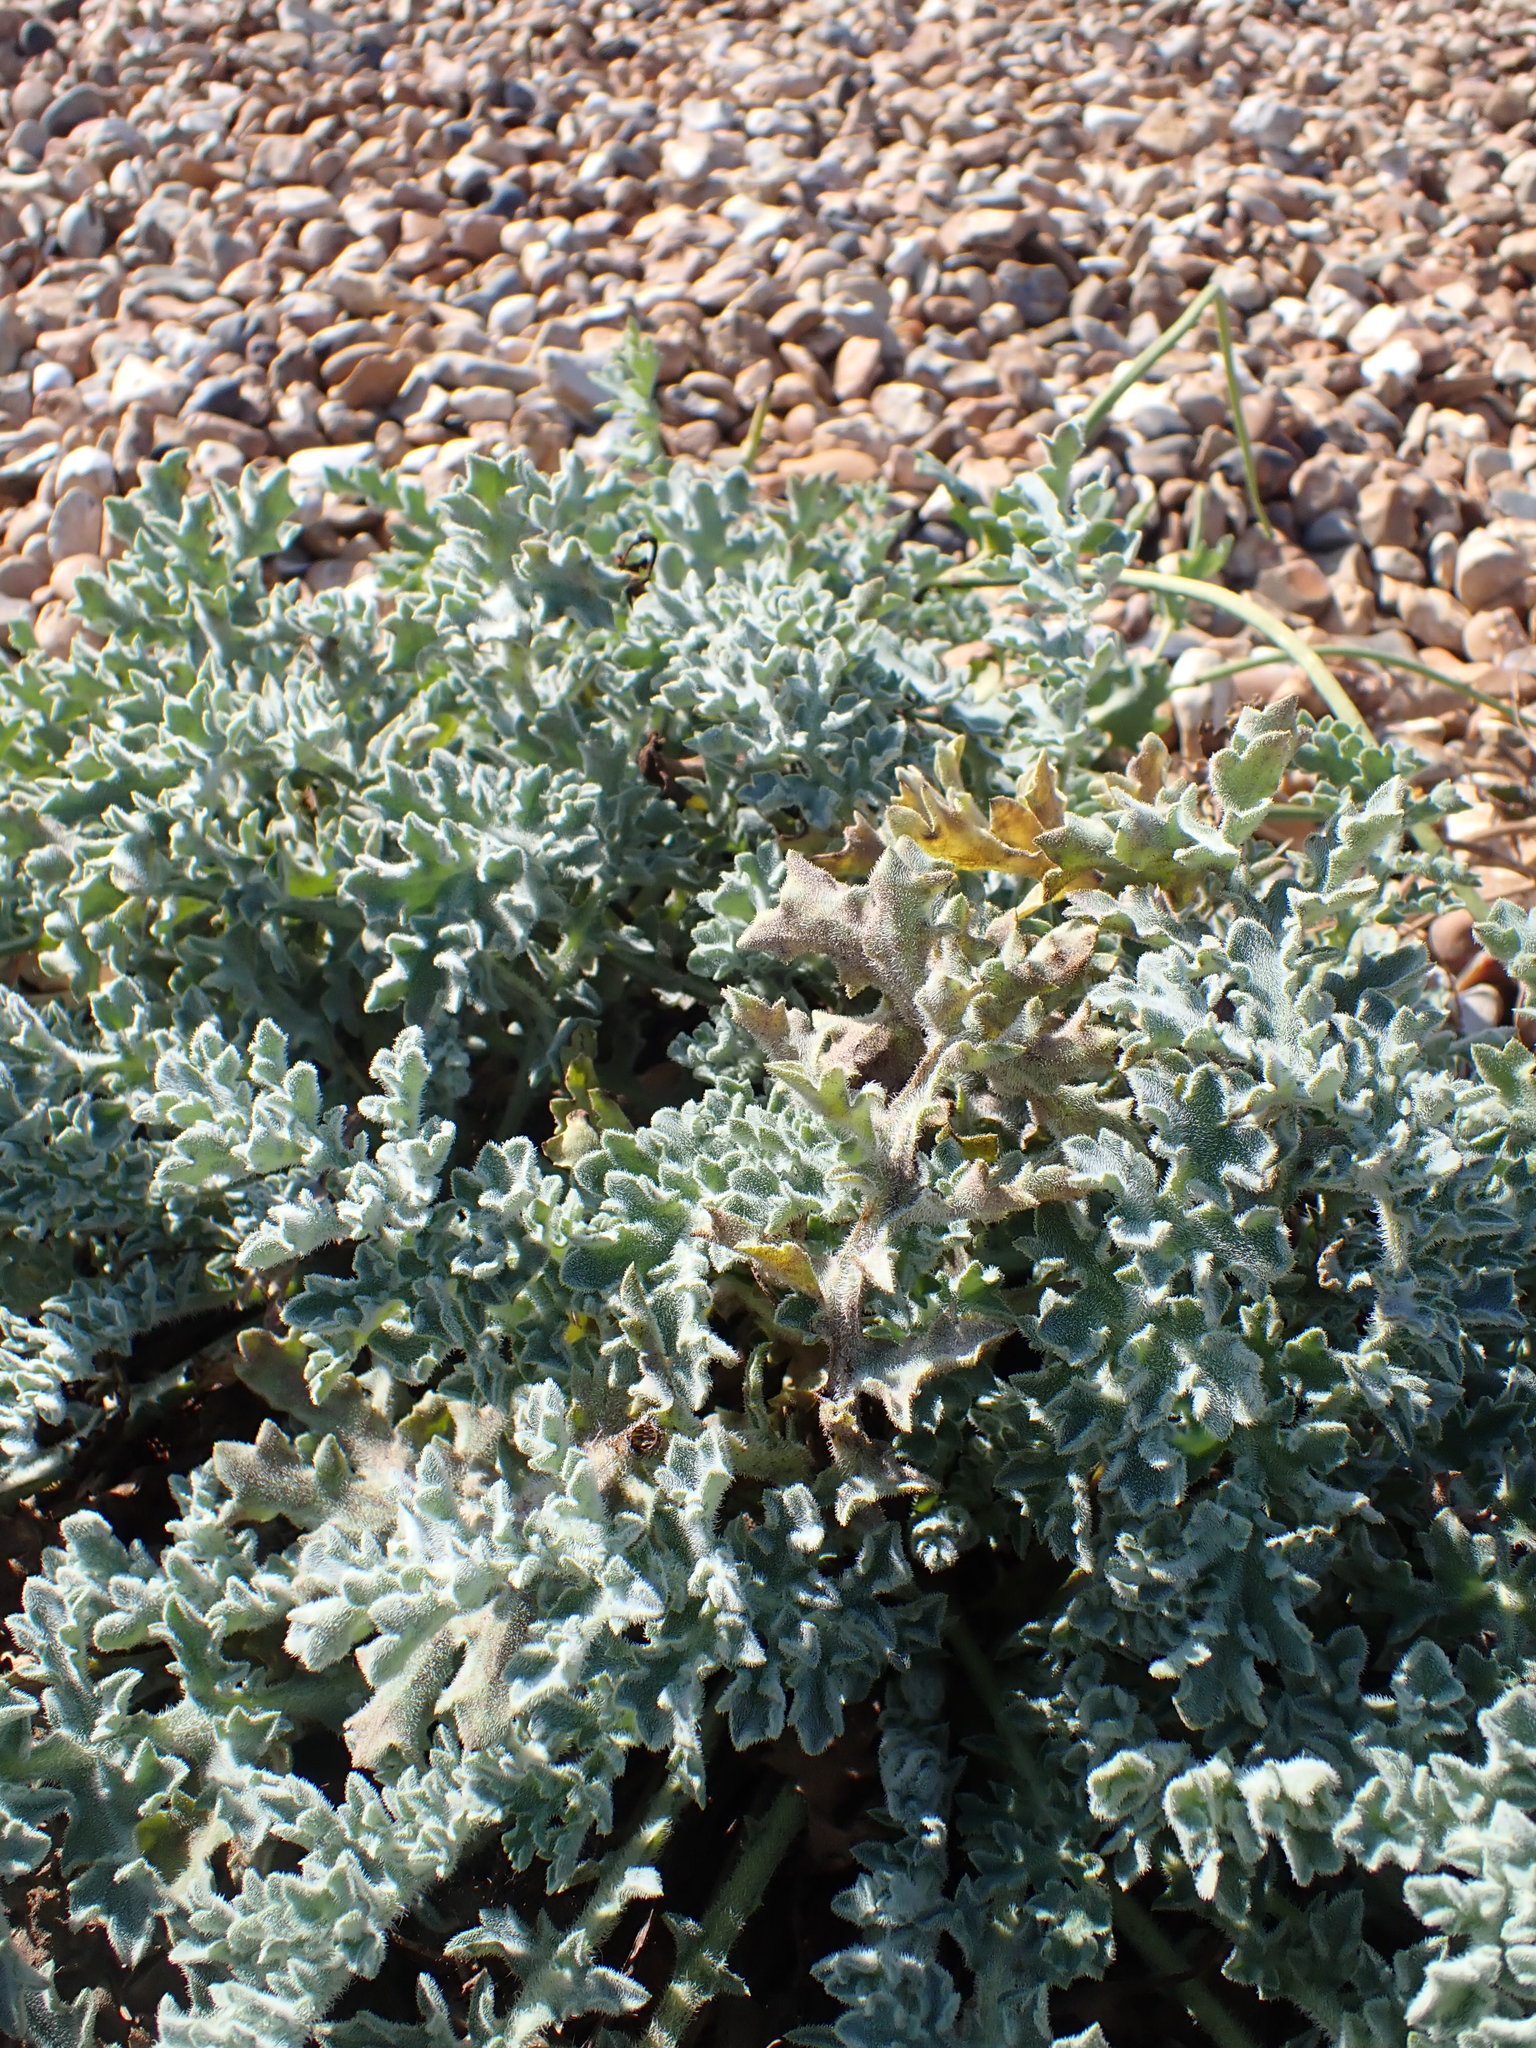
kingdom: Plantae
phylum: Tracheophyta
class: Magnoliopsida
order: Ranunculales
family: Papaveraceae
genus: Glaucium
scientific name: Glaucium flavum
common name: Yellow horned-poppy
